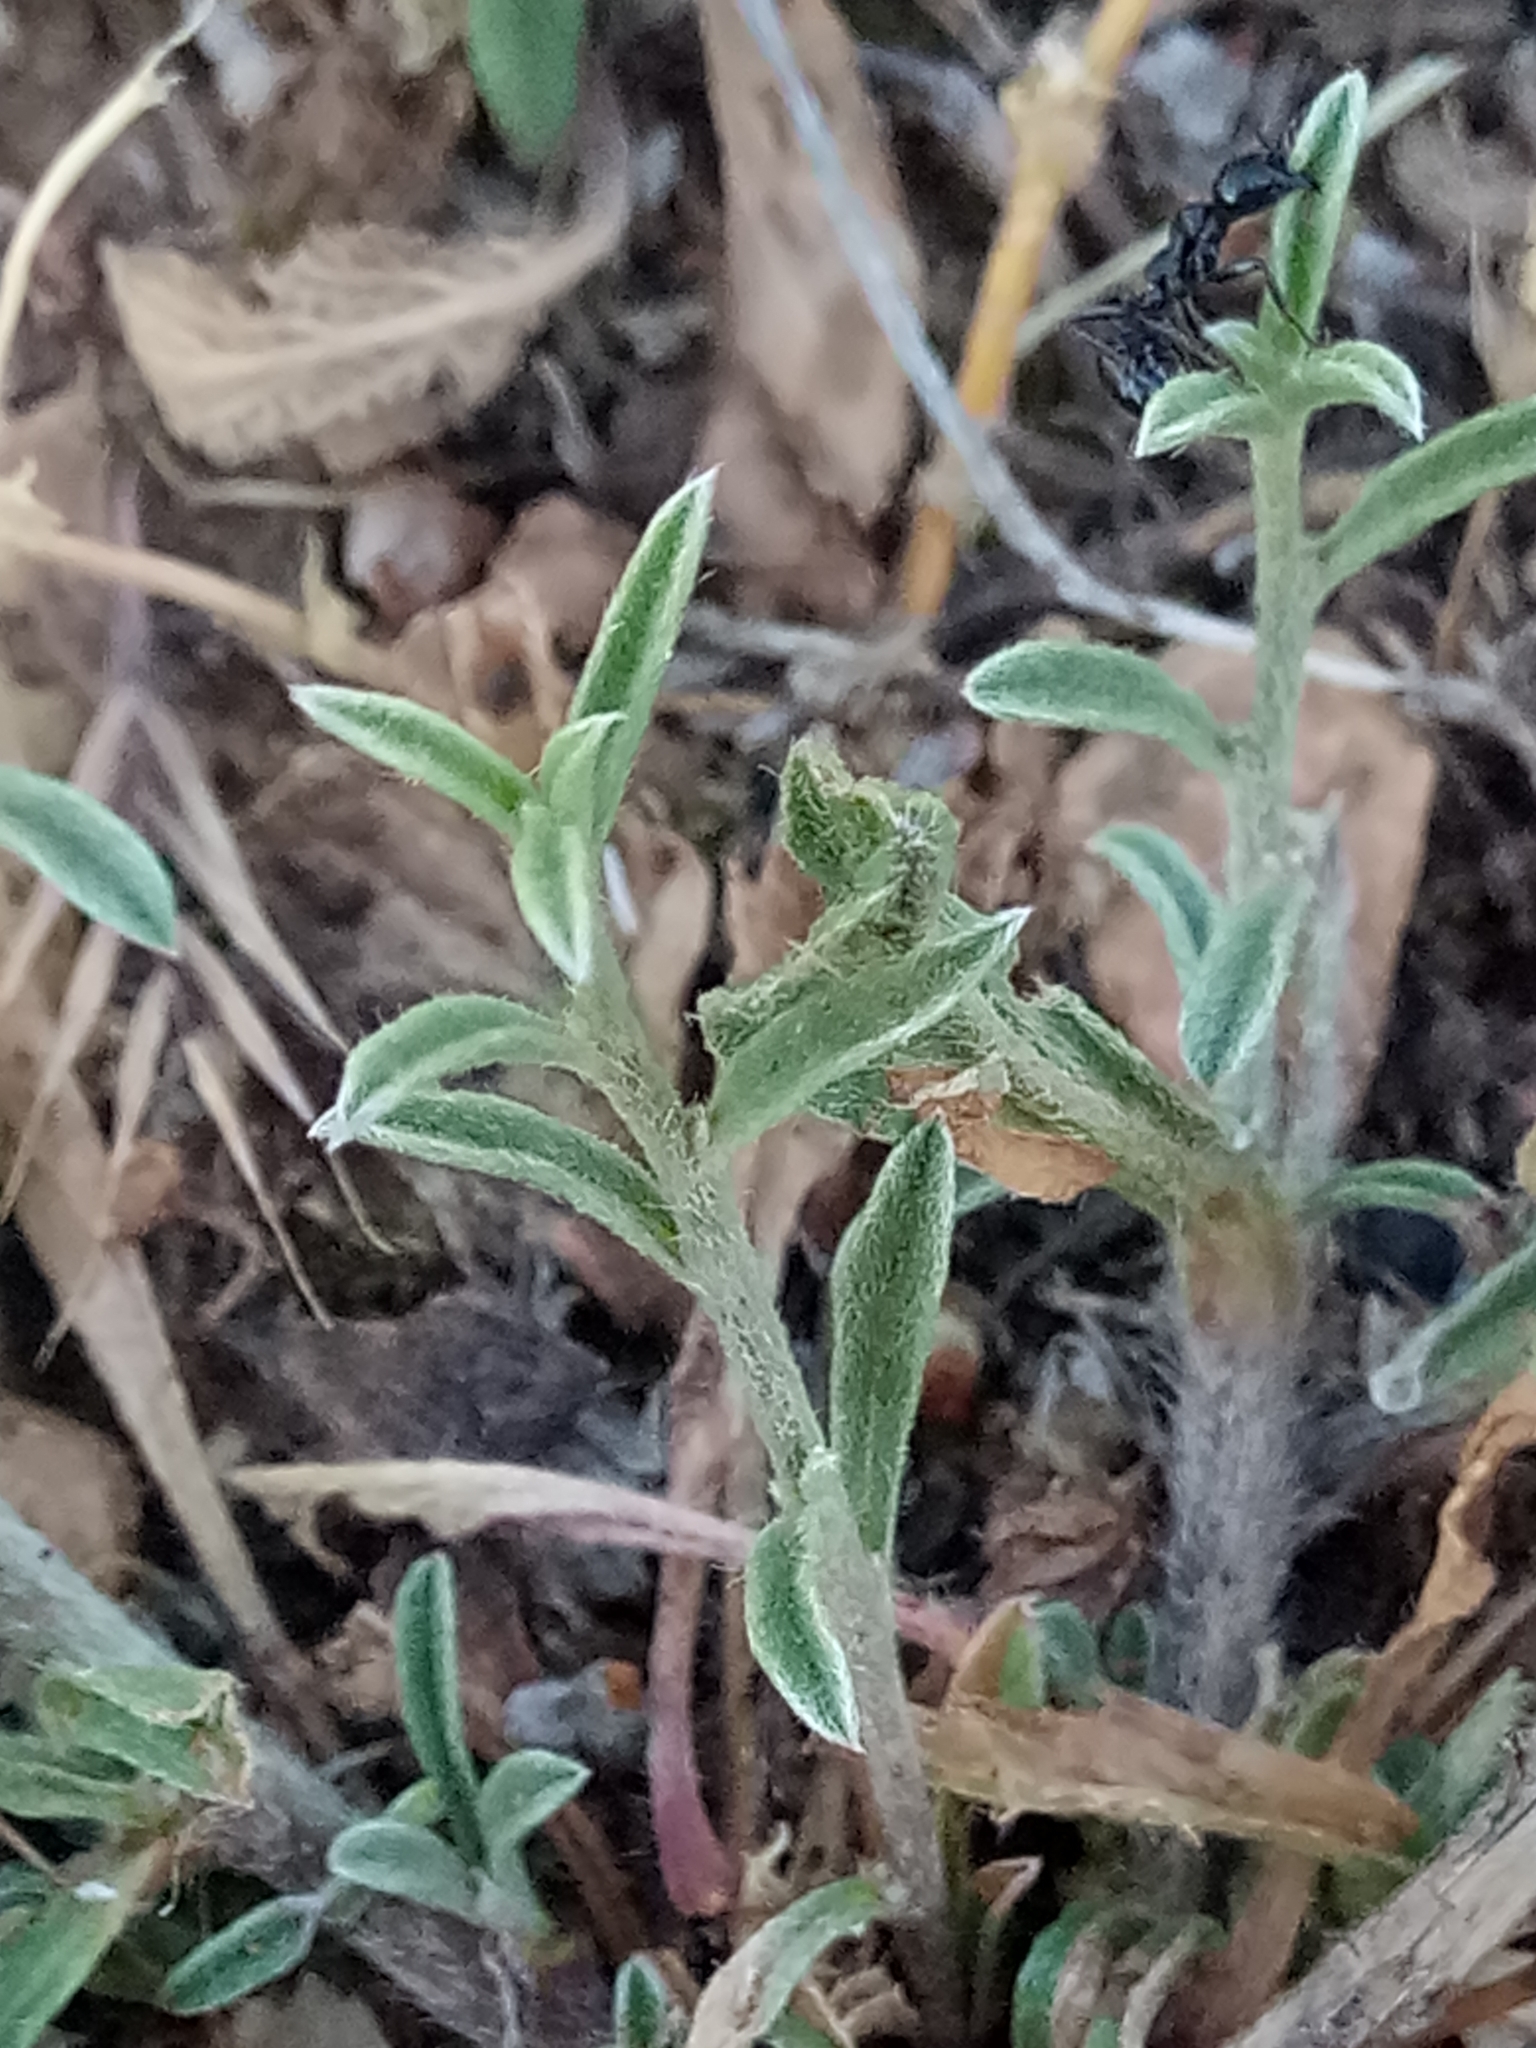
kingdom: Plantae
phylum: Tracheophyta
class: Magnoliopsida
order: Solanales
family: Convolvulaceae
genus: Convolvulus
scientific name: Convolvulus cantabrica
